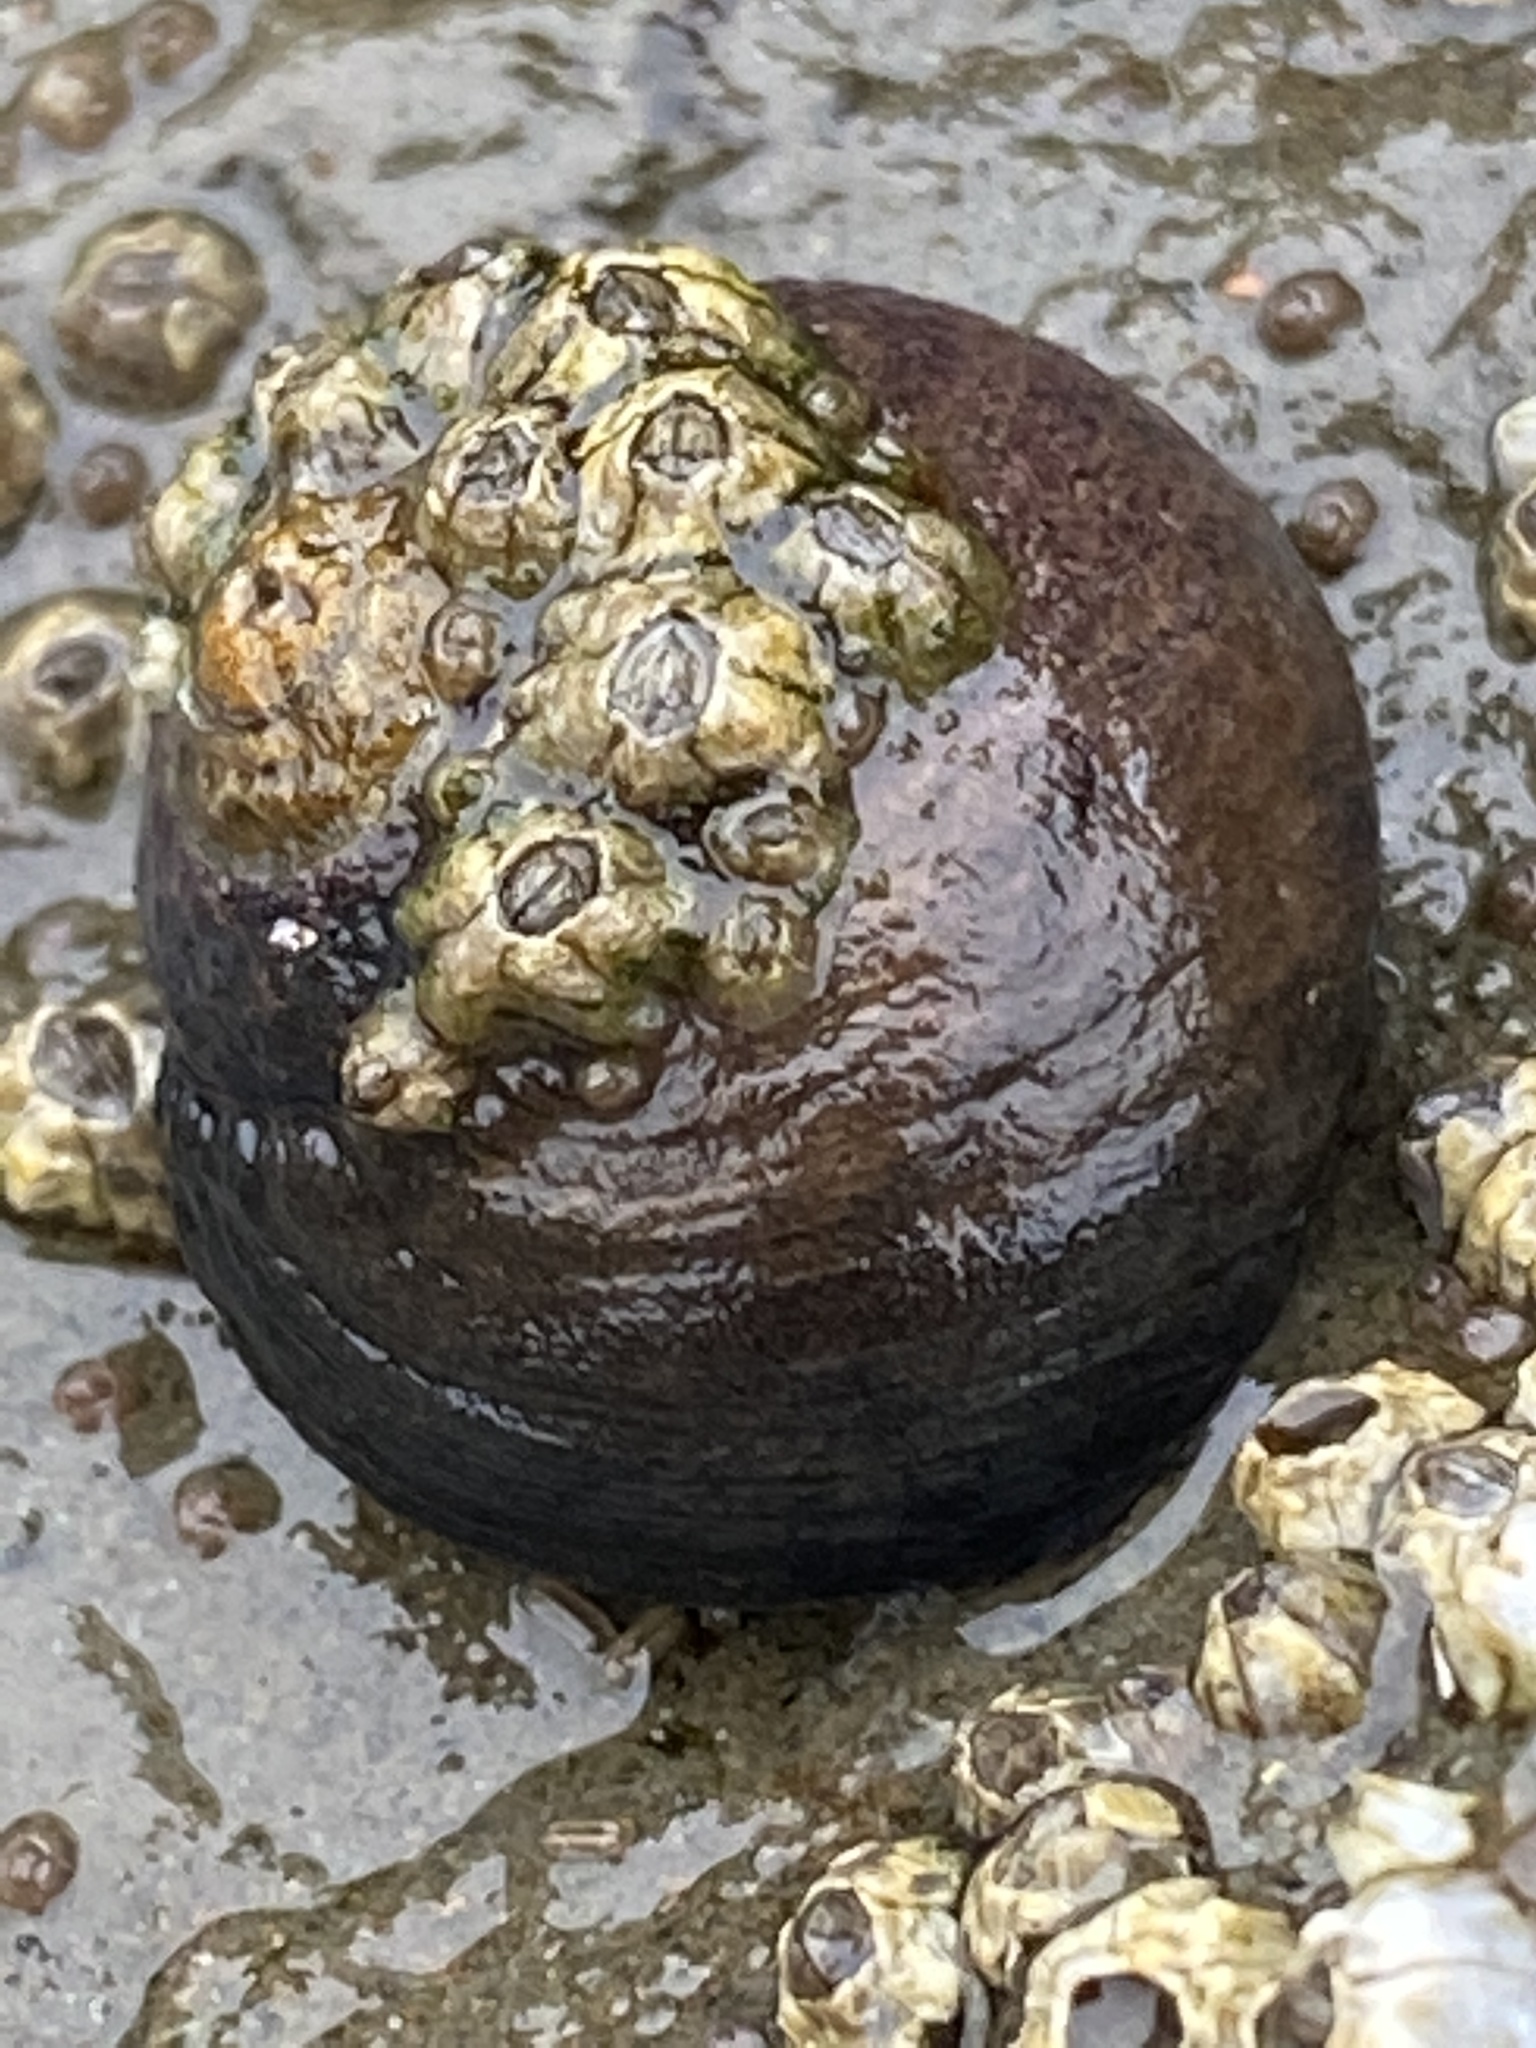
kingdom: Animalia
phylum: Mollusca
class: Gastropoda
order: Trochida
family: Tegulidae
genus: Tegula
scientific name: Tegula funebralis
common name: Black tegula
